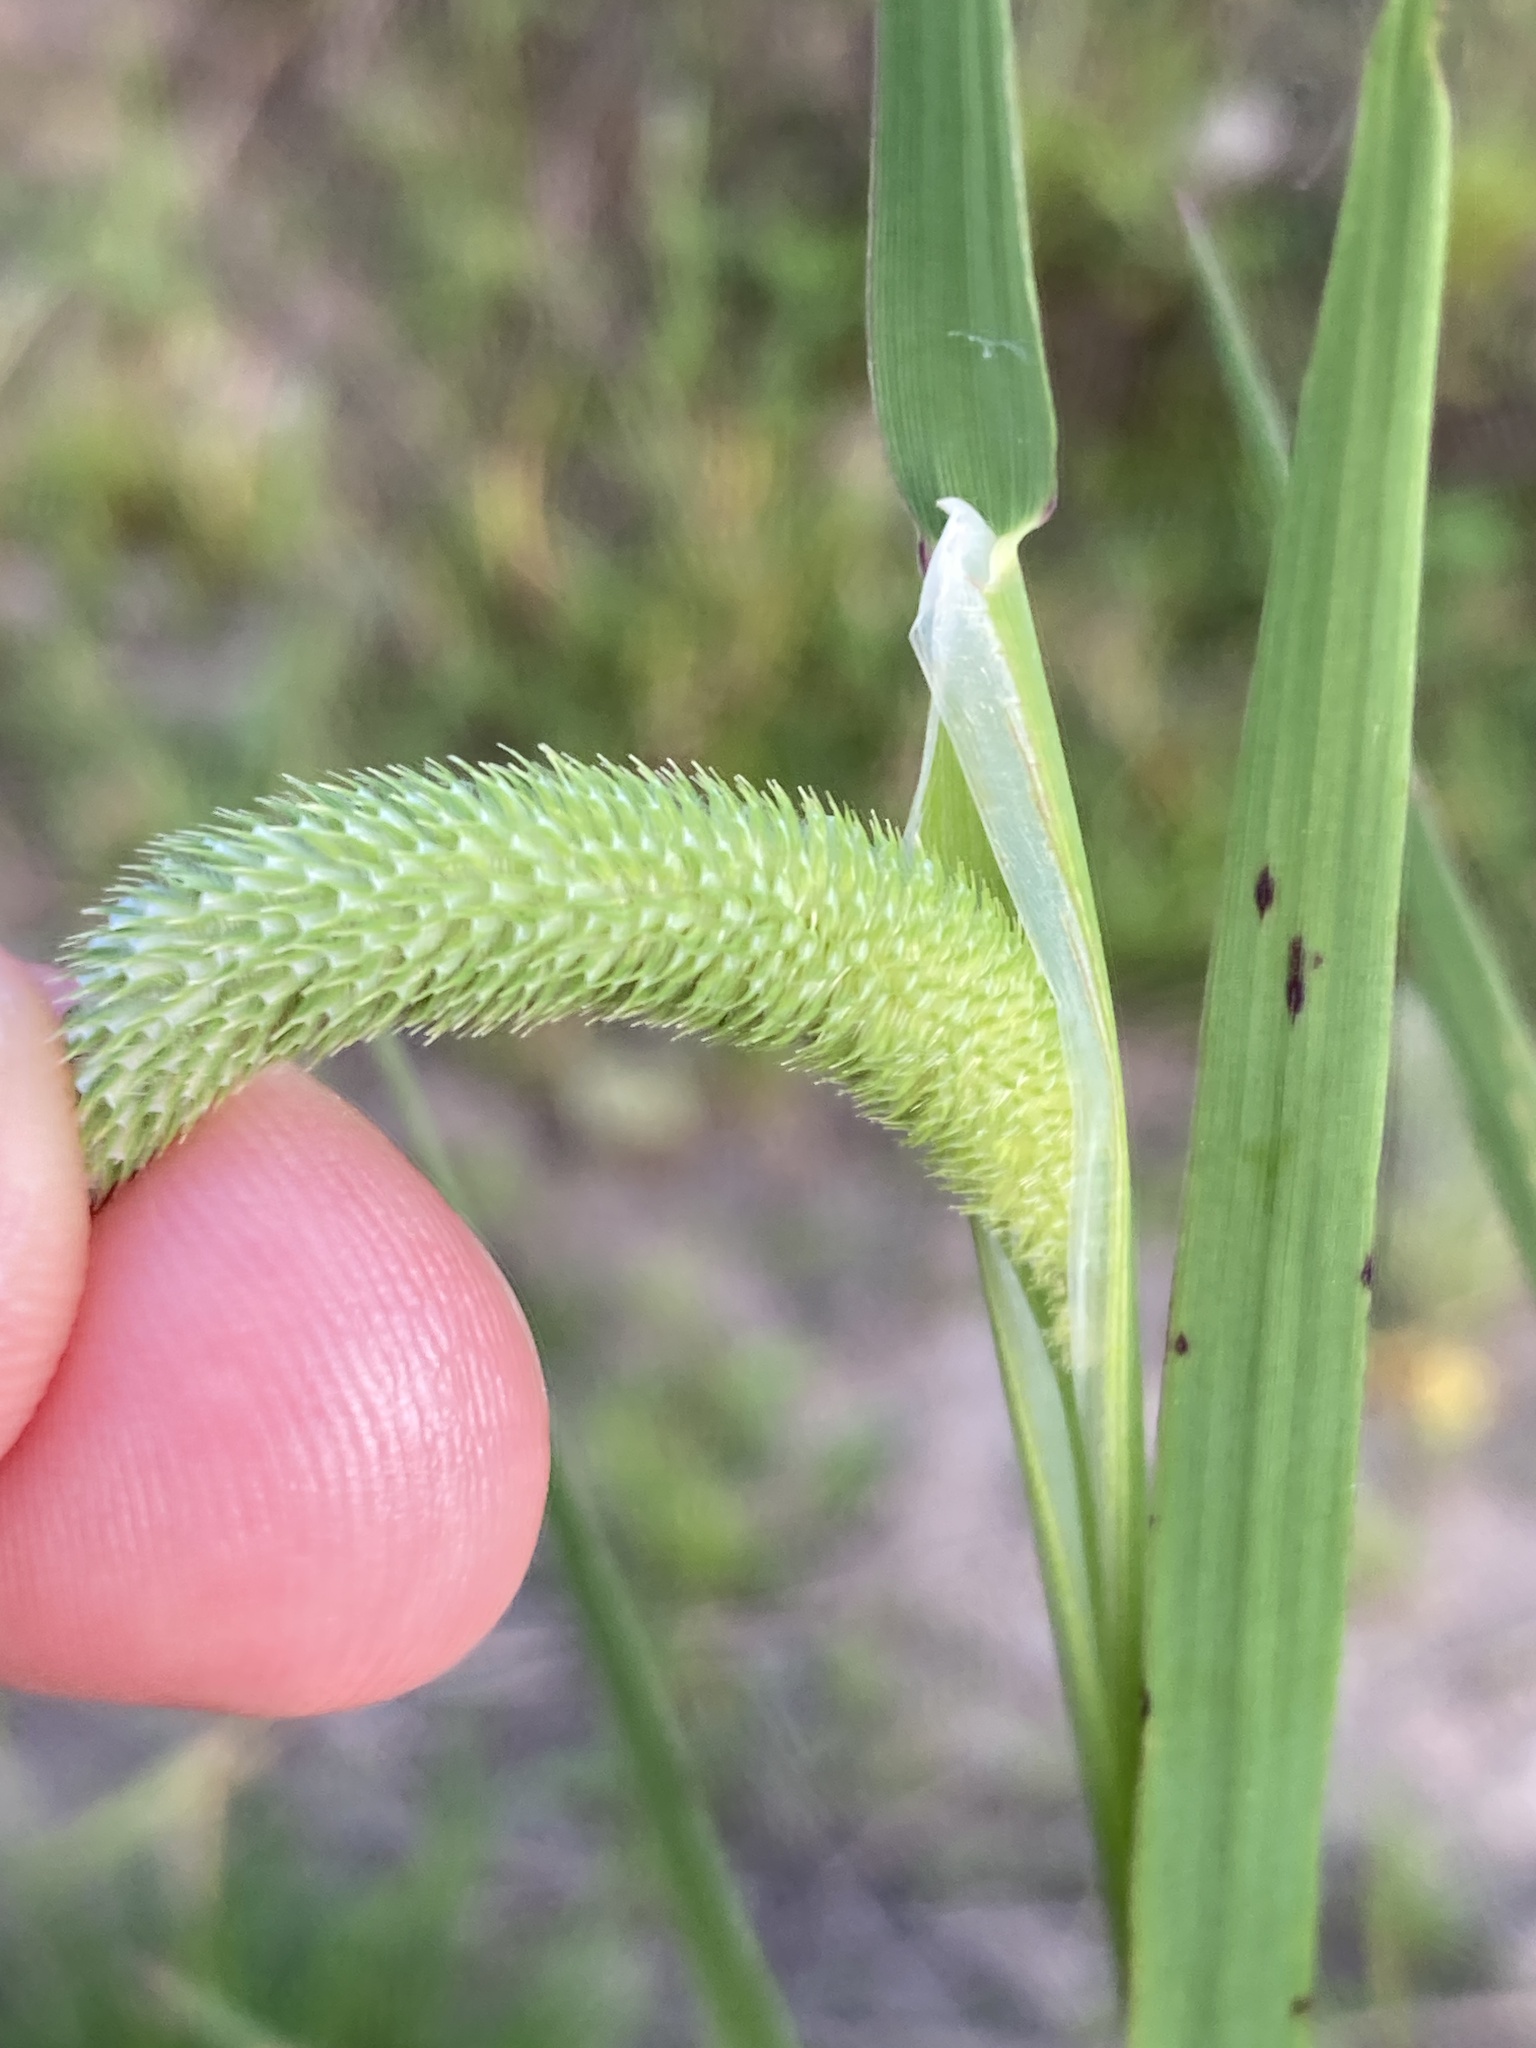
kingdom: Plantae
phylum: Tracheophyta
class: Liliopsida
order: Poales
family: Poaceae
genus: Phleum
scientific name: Phleum pratense
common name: Timothy grass
